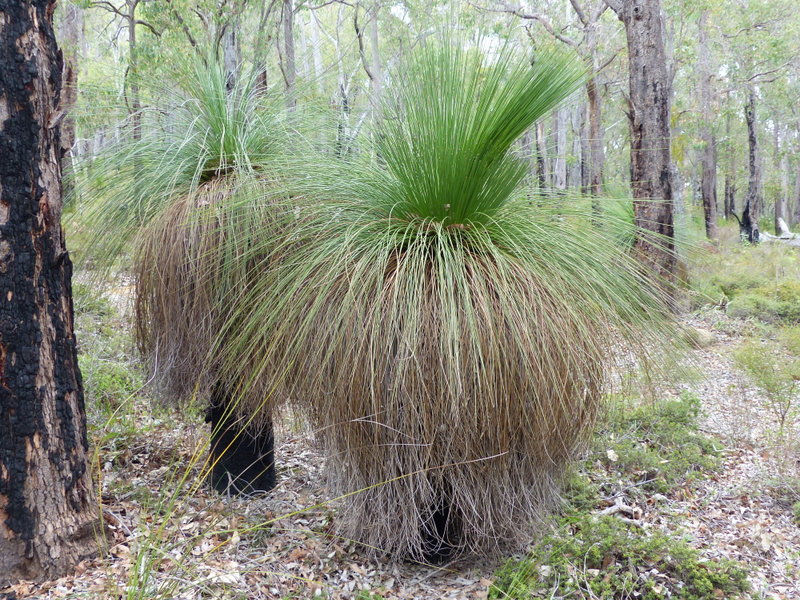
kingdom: Plantae
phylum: Tracheophyta
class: Liliopsida
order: Asparagales
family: Asphodelaceae
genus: Xanthorrhoea
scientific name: Xanthorrhoea preissii
